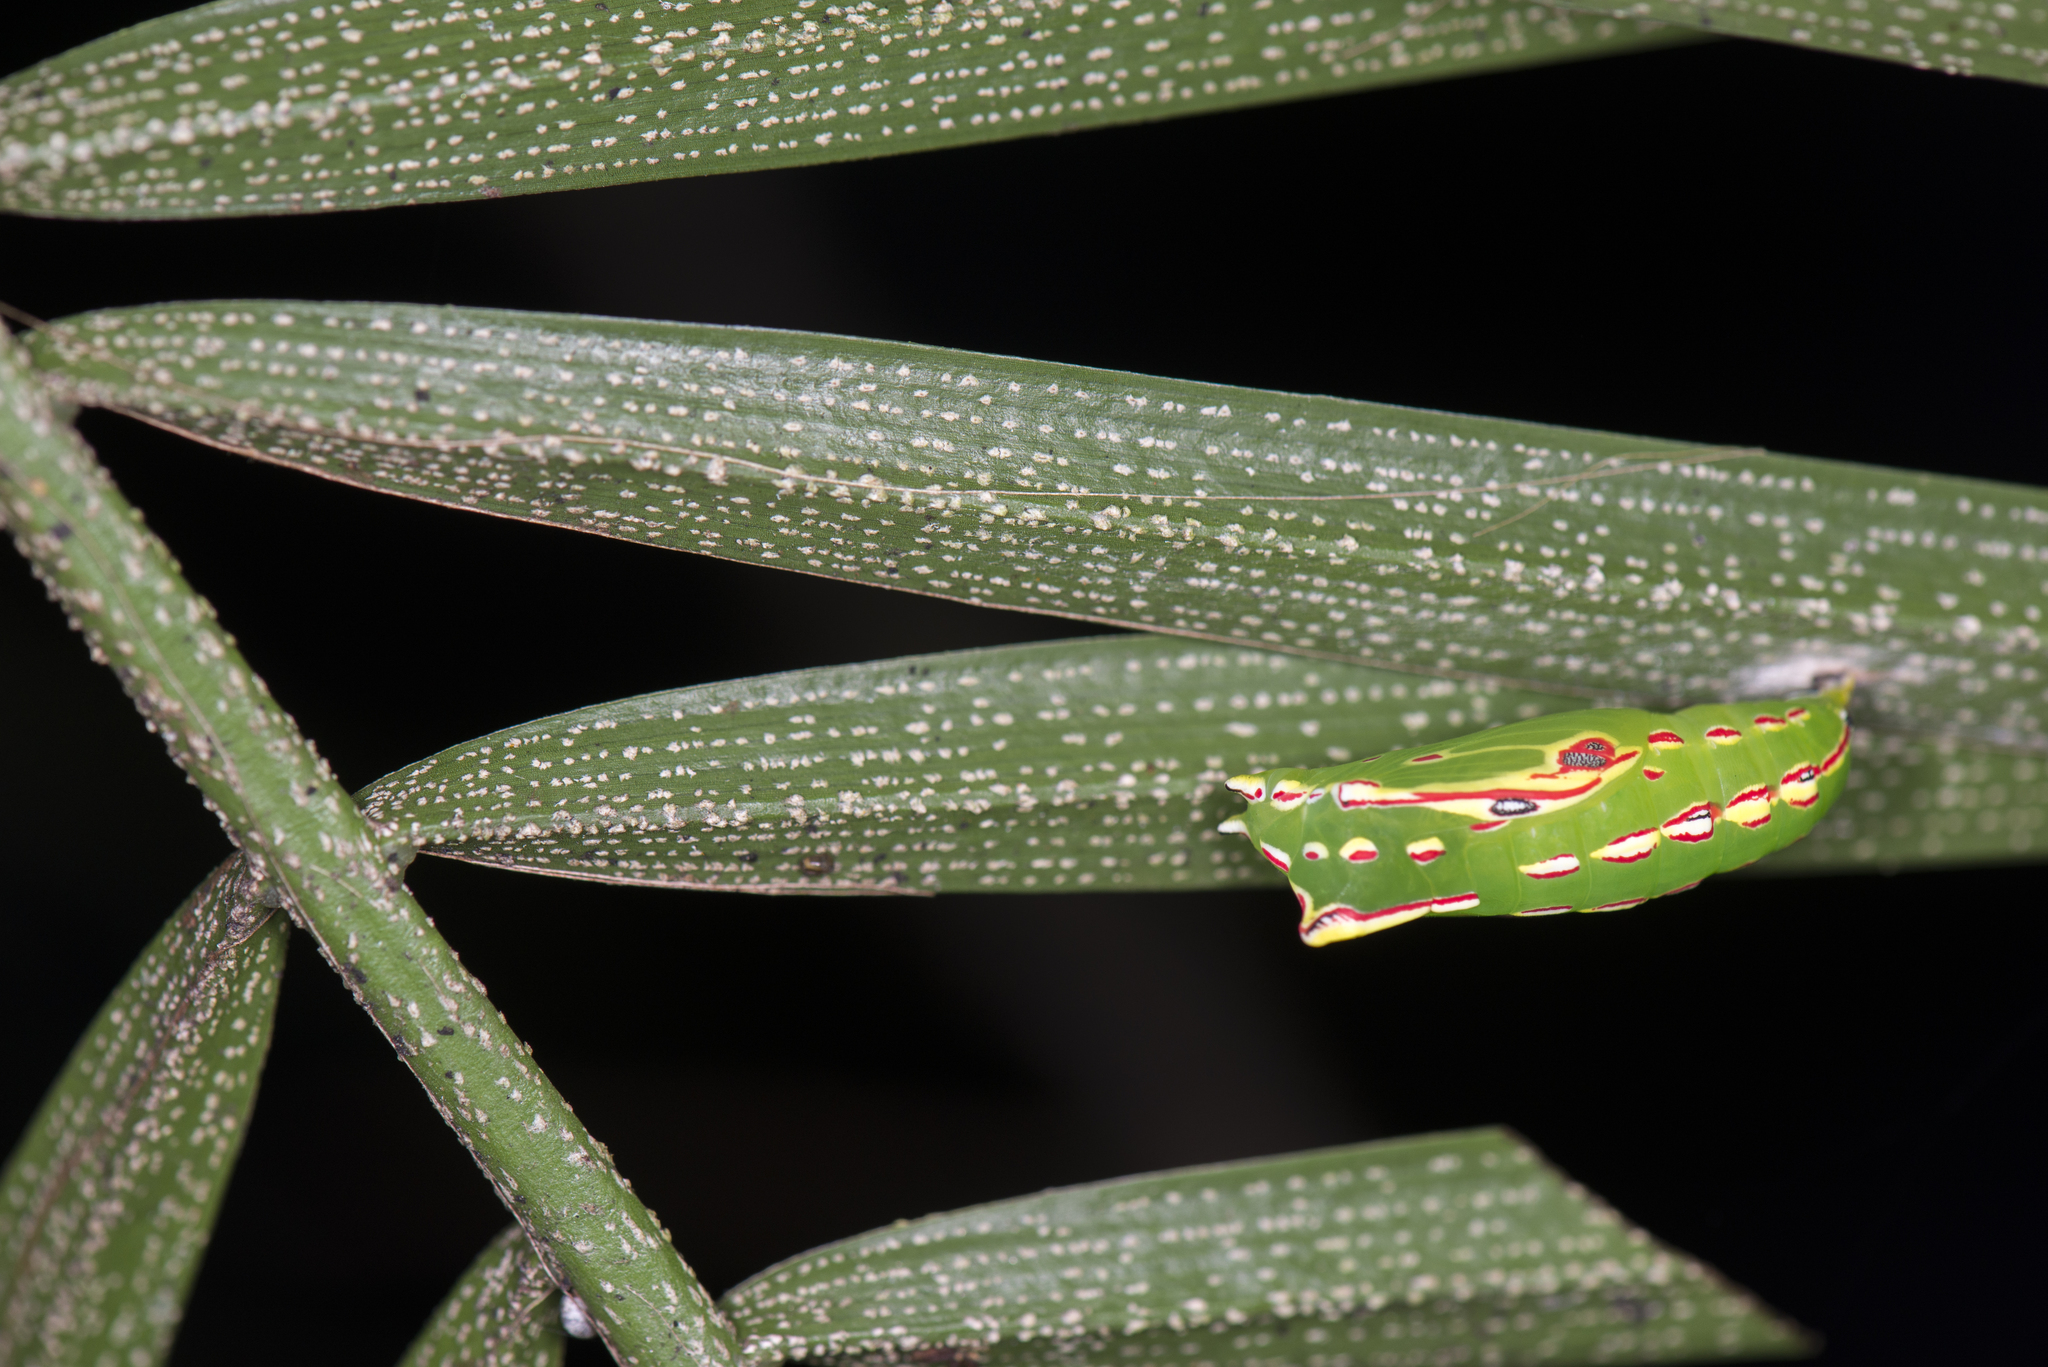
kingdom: Animalia
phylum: Arthropoda
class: Insecta
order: Lepidoptera
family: Nymphalidae
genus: Elymnias
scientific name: Elymnias hypermnestra
